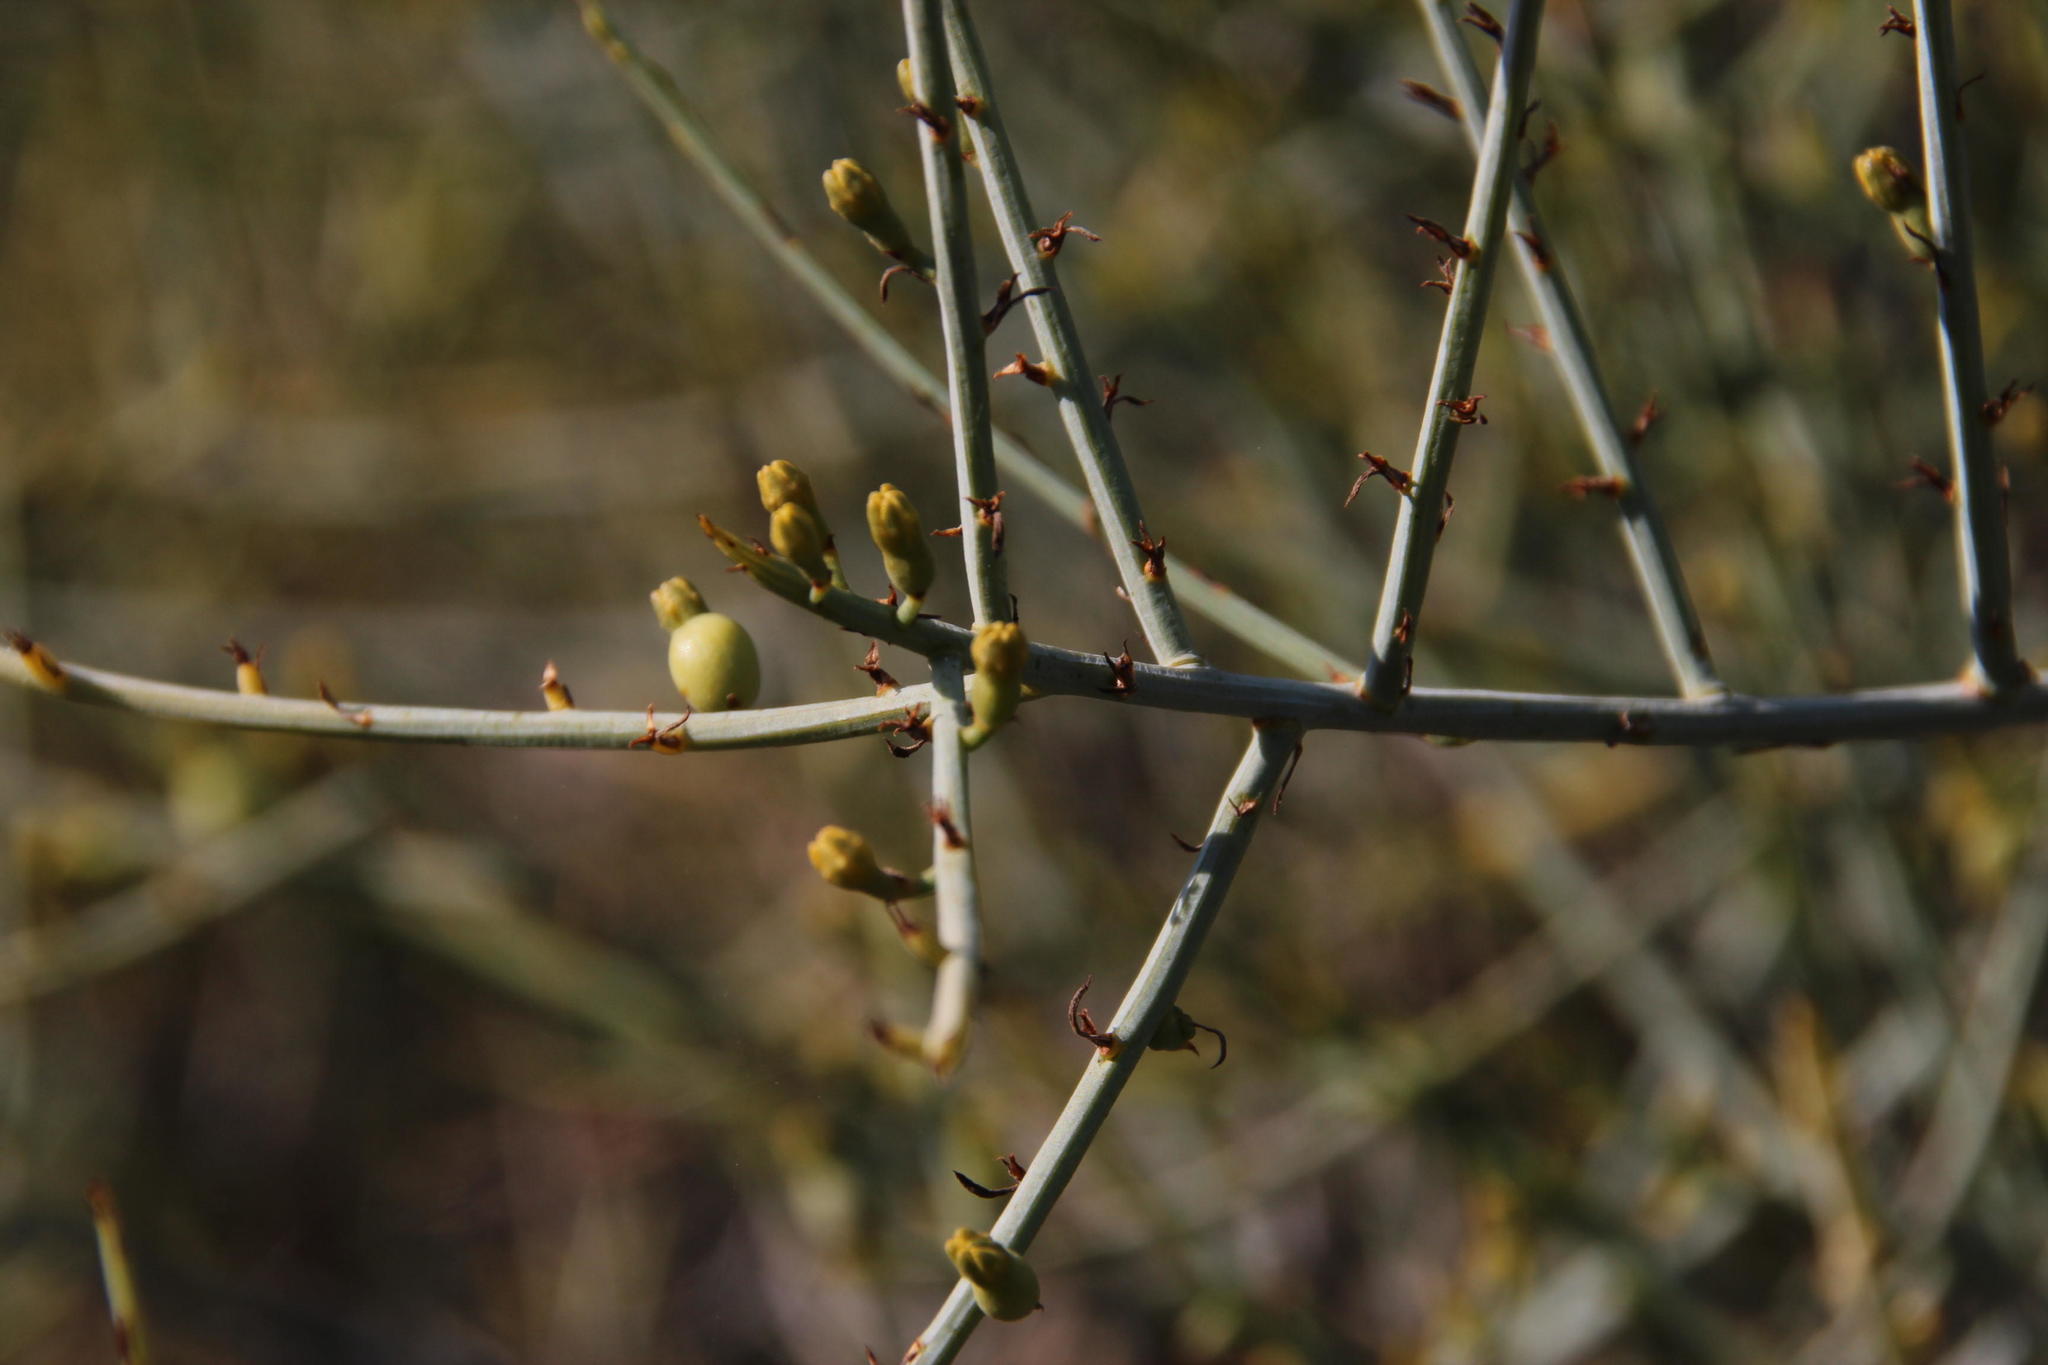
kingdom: Plantae
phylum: Tracheophyta
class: Magnoliopsida
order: Santalales
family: Thesiaceae
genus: Lacomucinaea
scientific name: Lacomucinaea lineata
